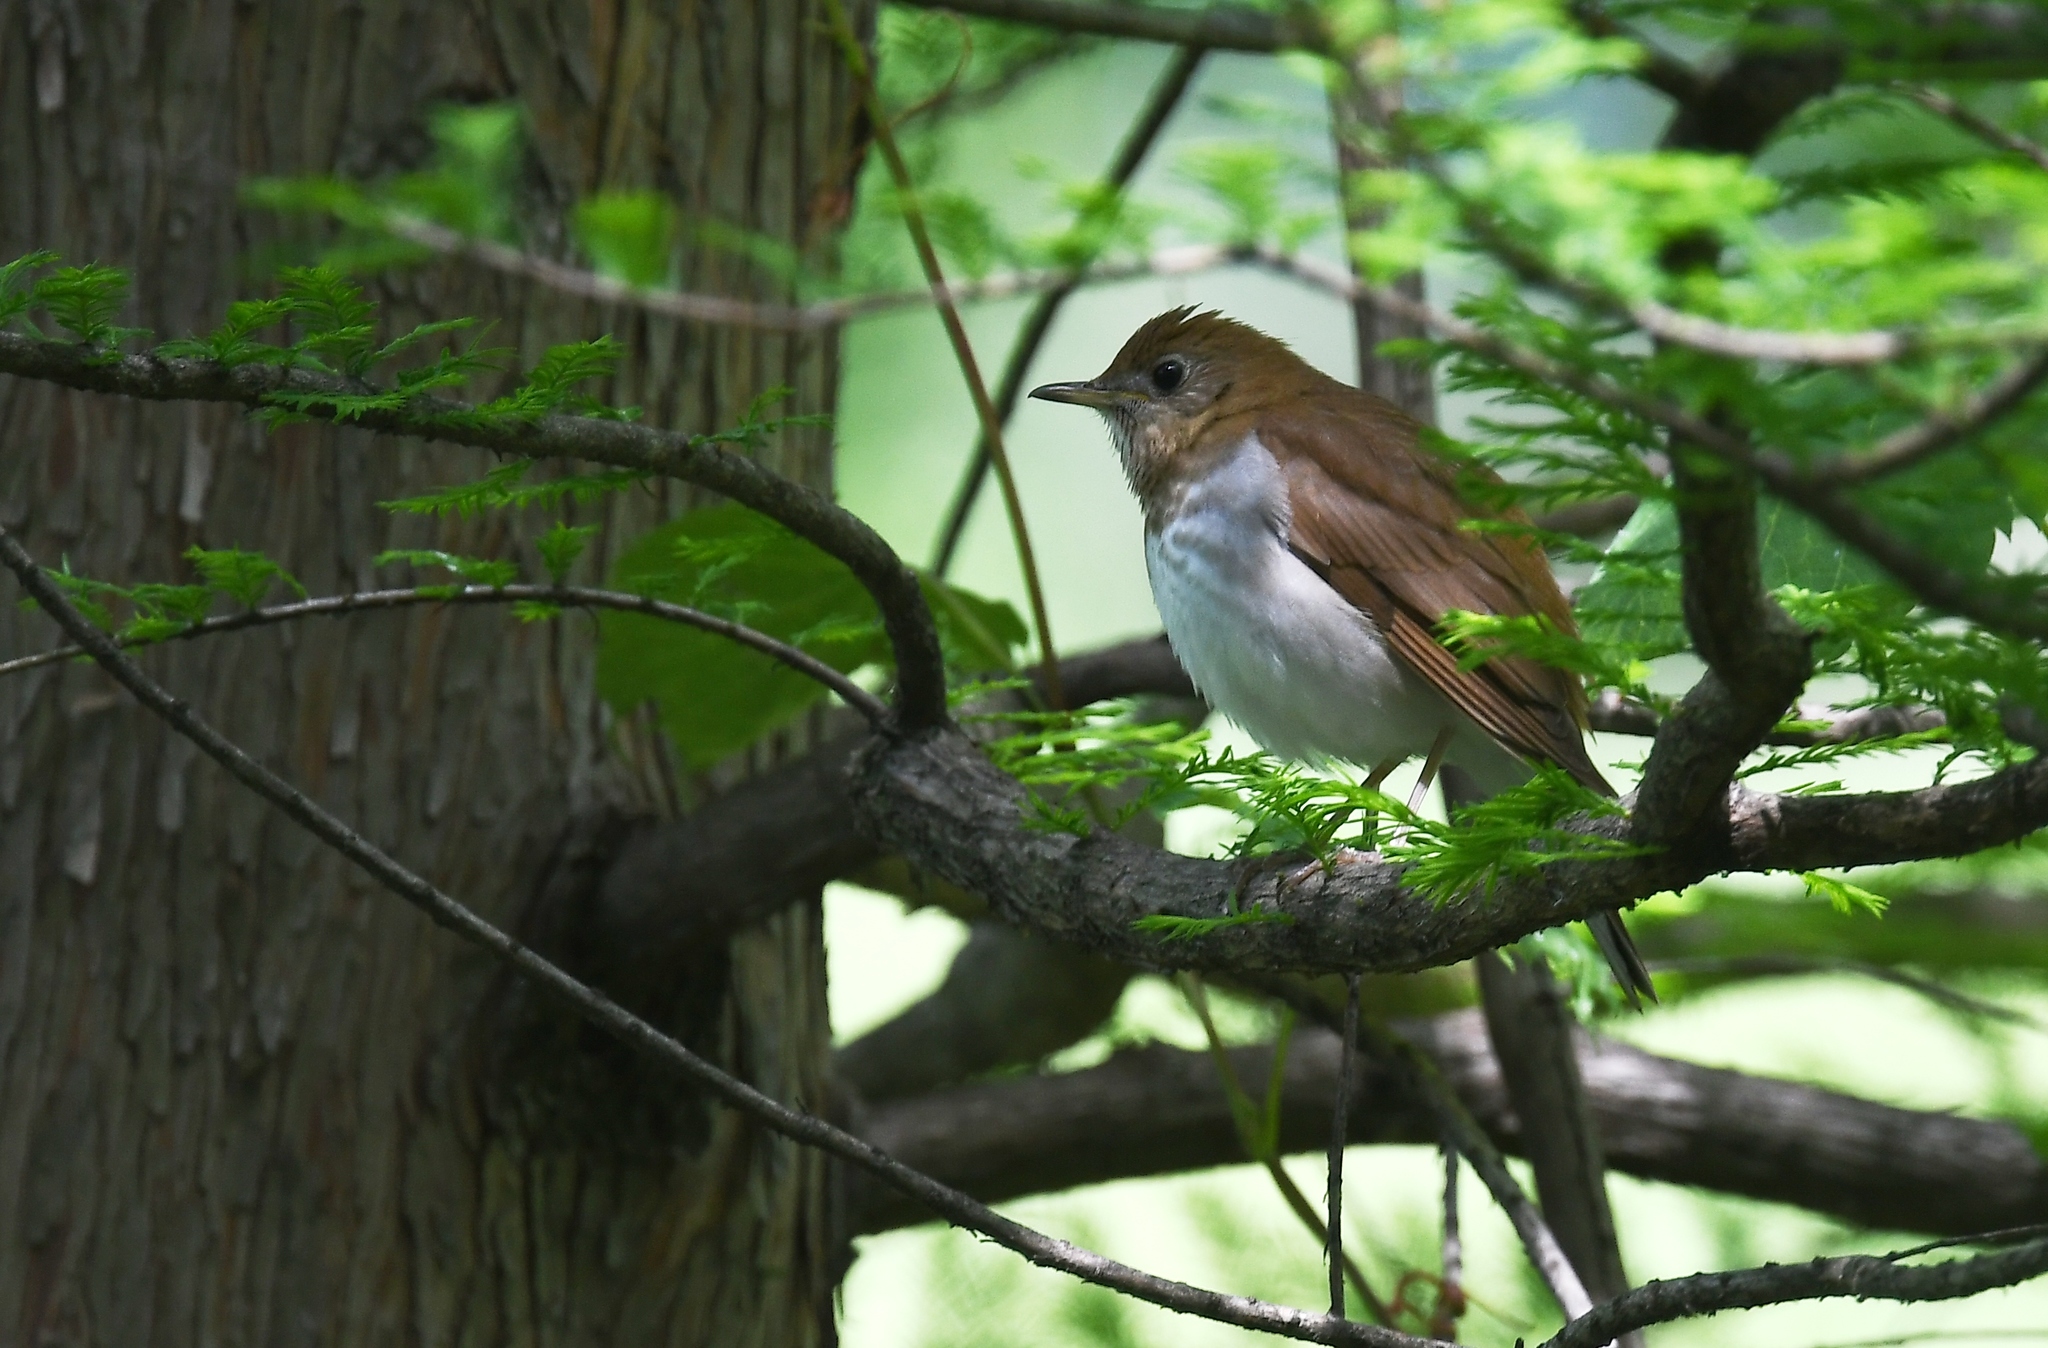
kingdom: Animalia
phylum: Chordata
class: Aves
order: Passeriformes
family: Turdidae
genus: Catharus
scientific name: Catharus fuscescens
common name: Veery
